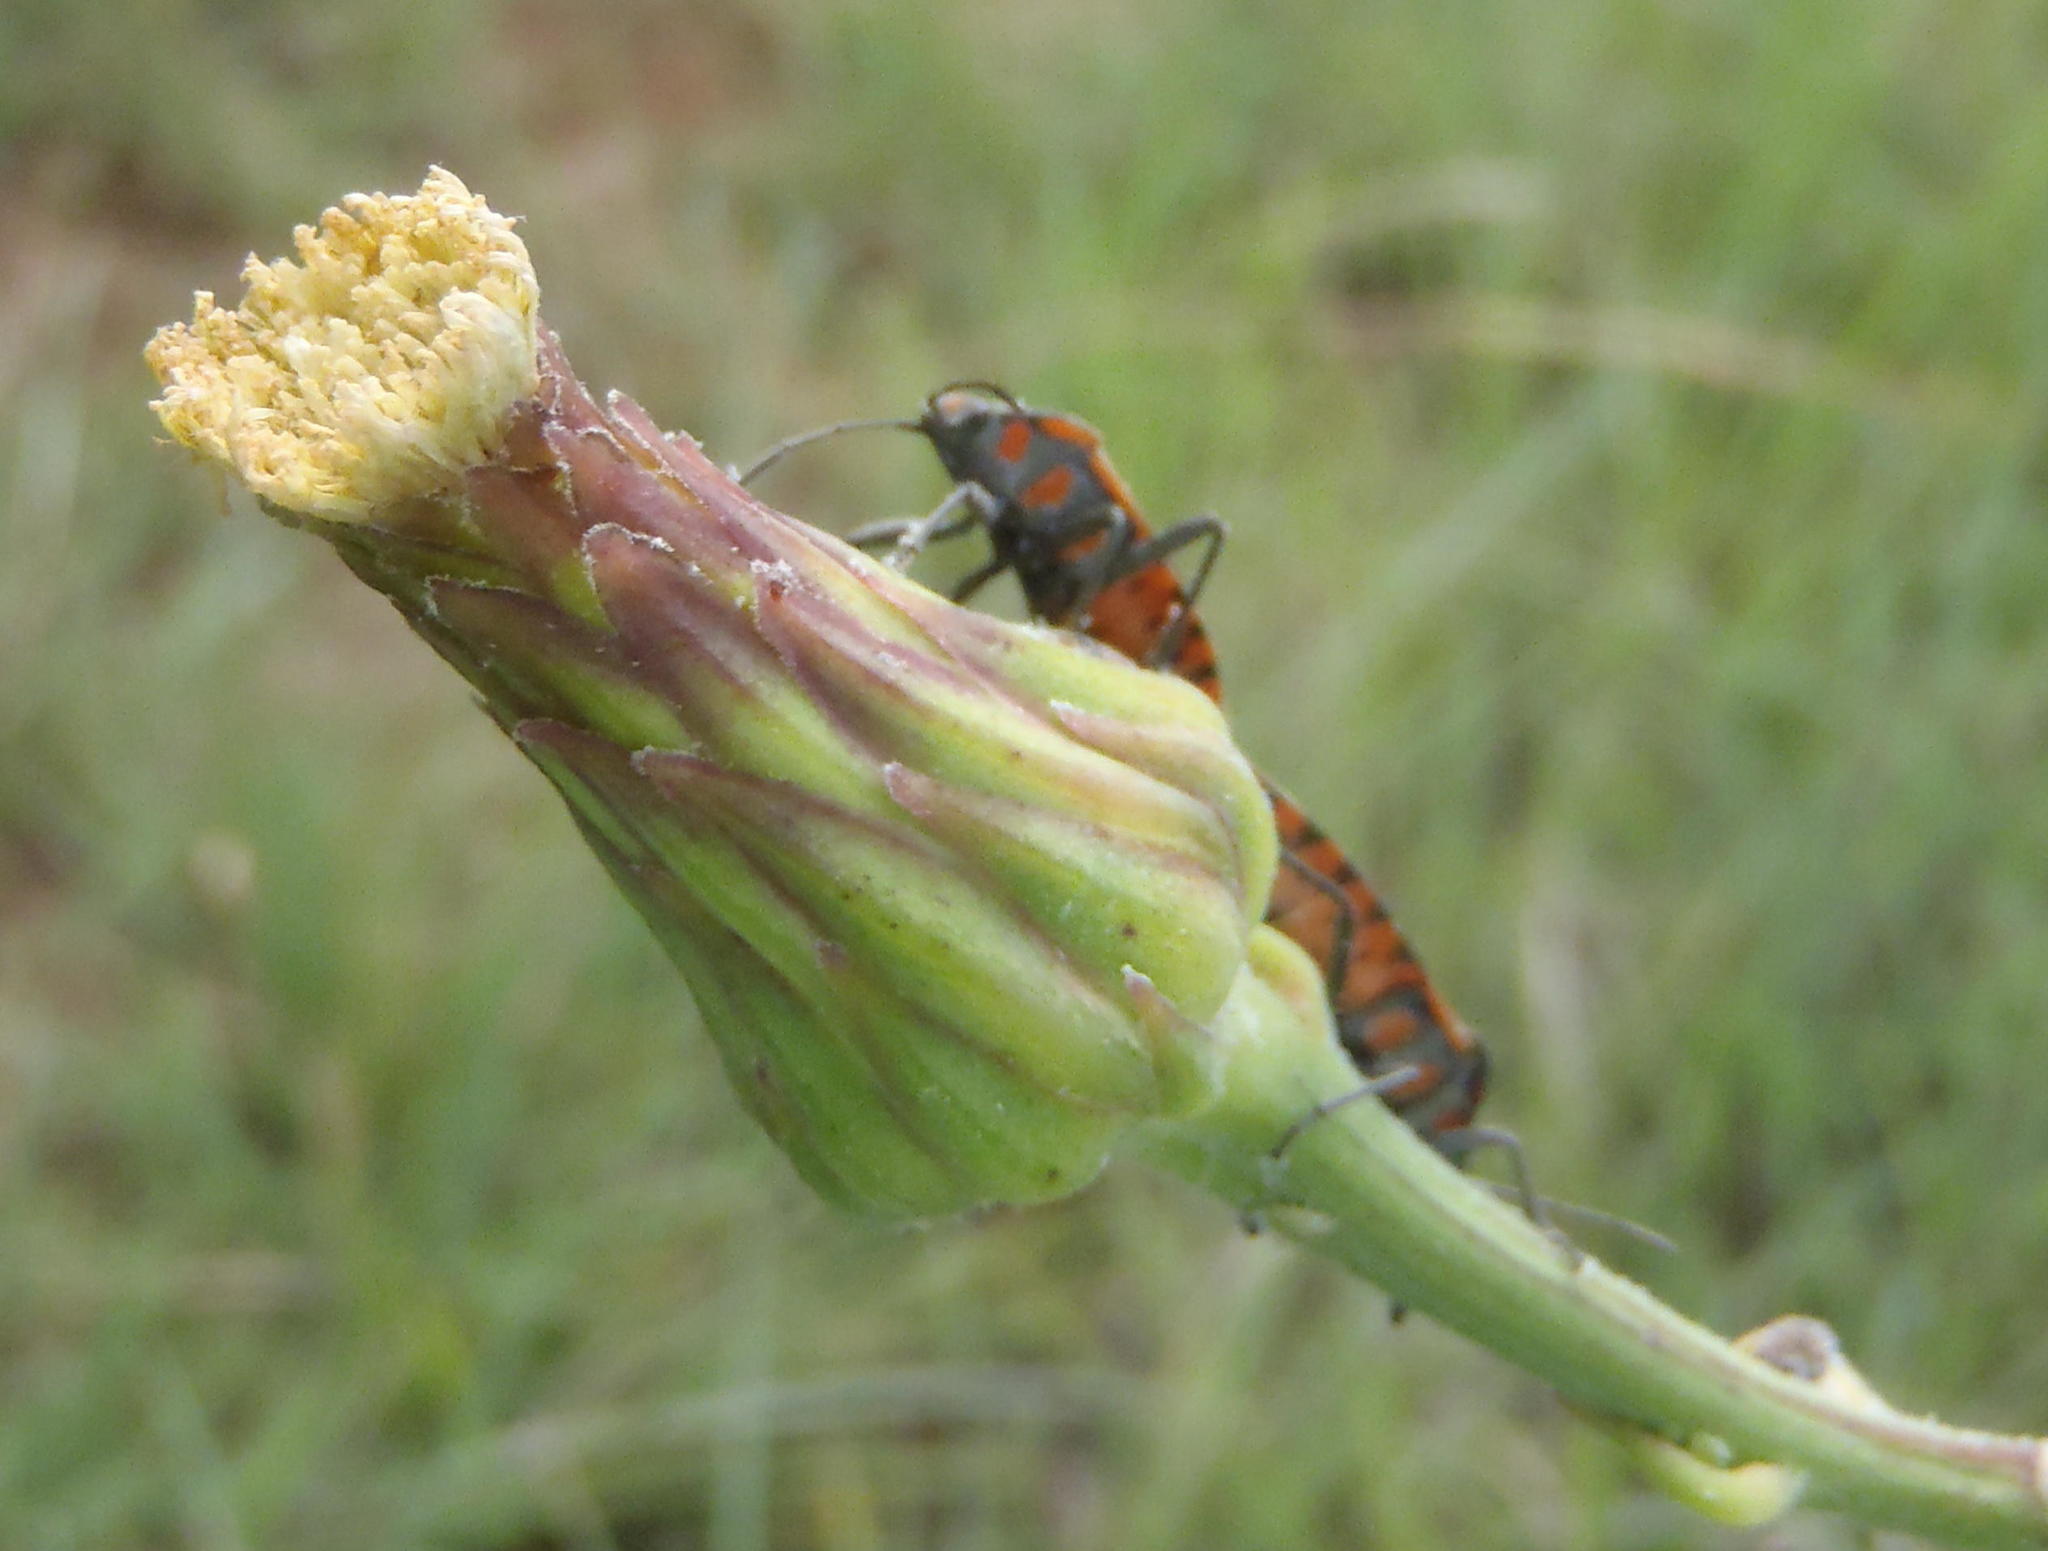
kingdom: Plantae
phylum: Tracheophyta
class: Magnoliopsida
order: Asterales
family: Asteraceae
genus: Sonchus
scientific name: Sonchus wilmsii
